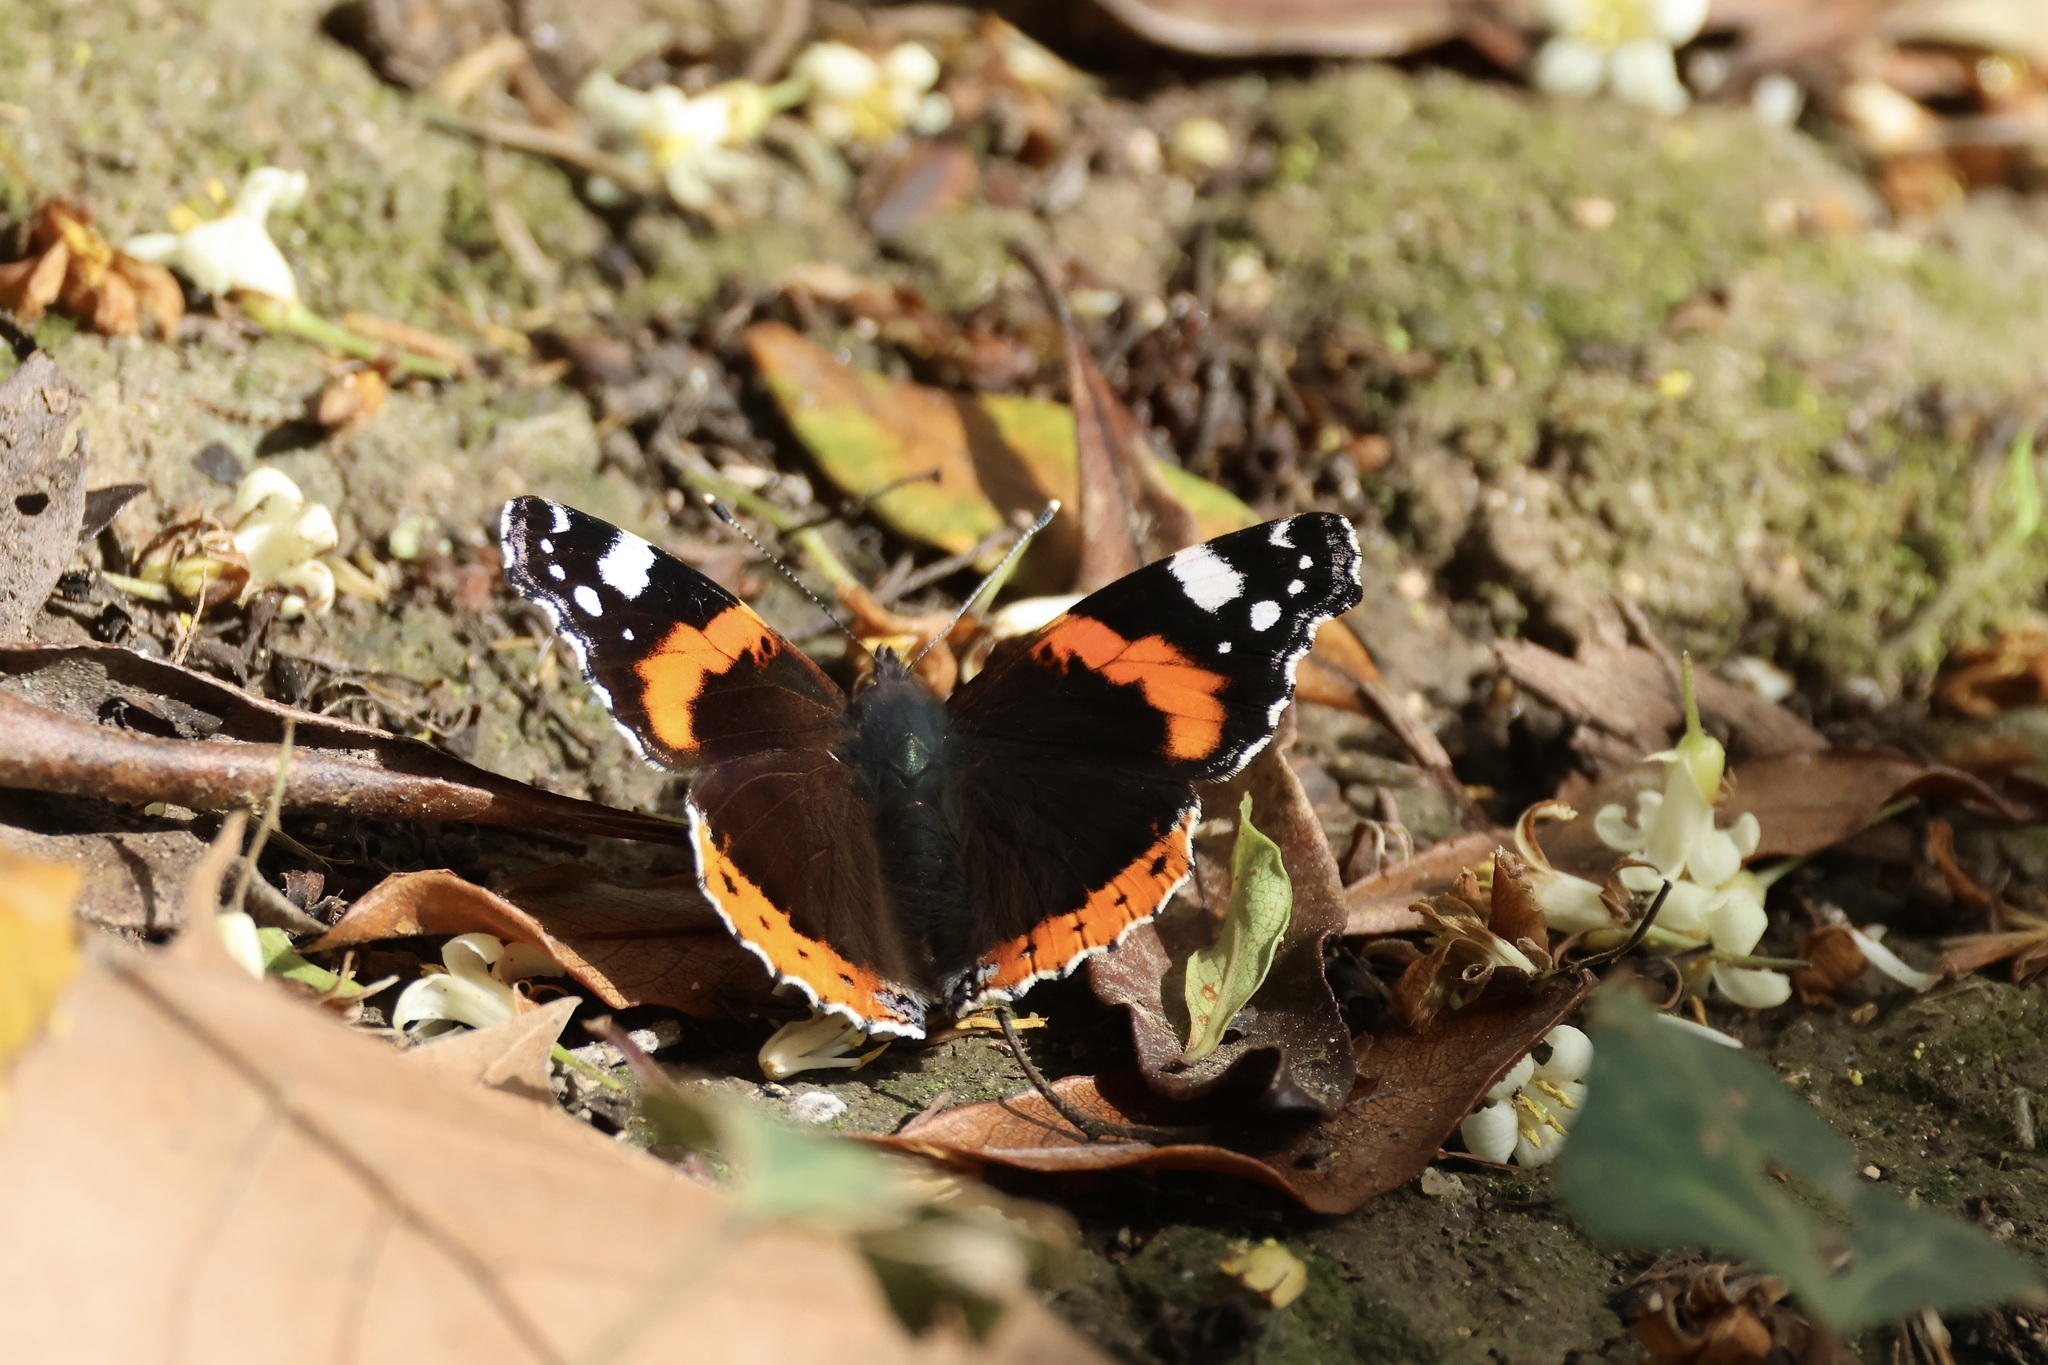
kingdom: Animalia
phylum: Arthropoda
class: Insecta
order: Lepidoptera
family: Nymphalidae
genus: Vanessa
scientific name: Vanessa atalanta
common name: Red admiral
